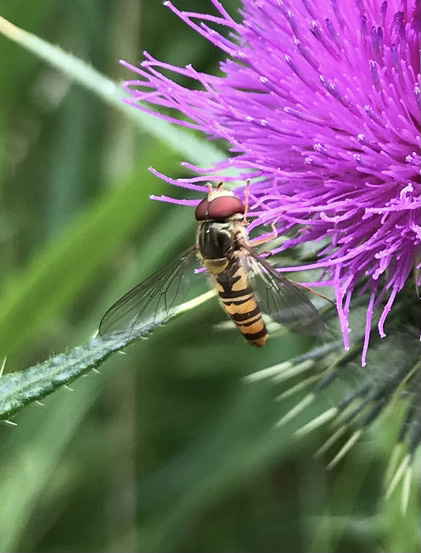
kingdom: Animalia
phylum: Arthropoda
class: Insecta
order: Diptera
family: Syrphidae
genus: Episyrphus
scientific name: Episyrphus balteatus
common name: Marmalade hoverfly
